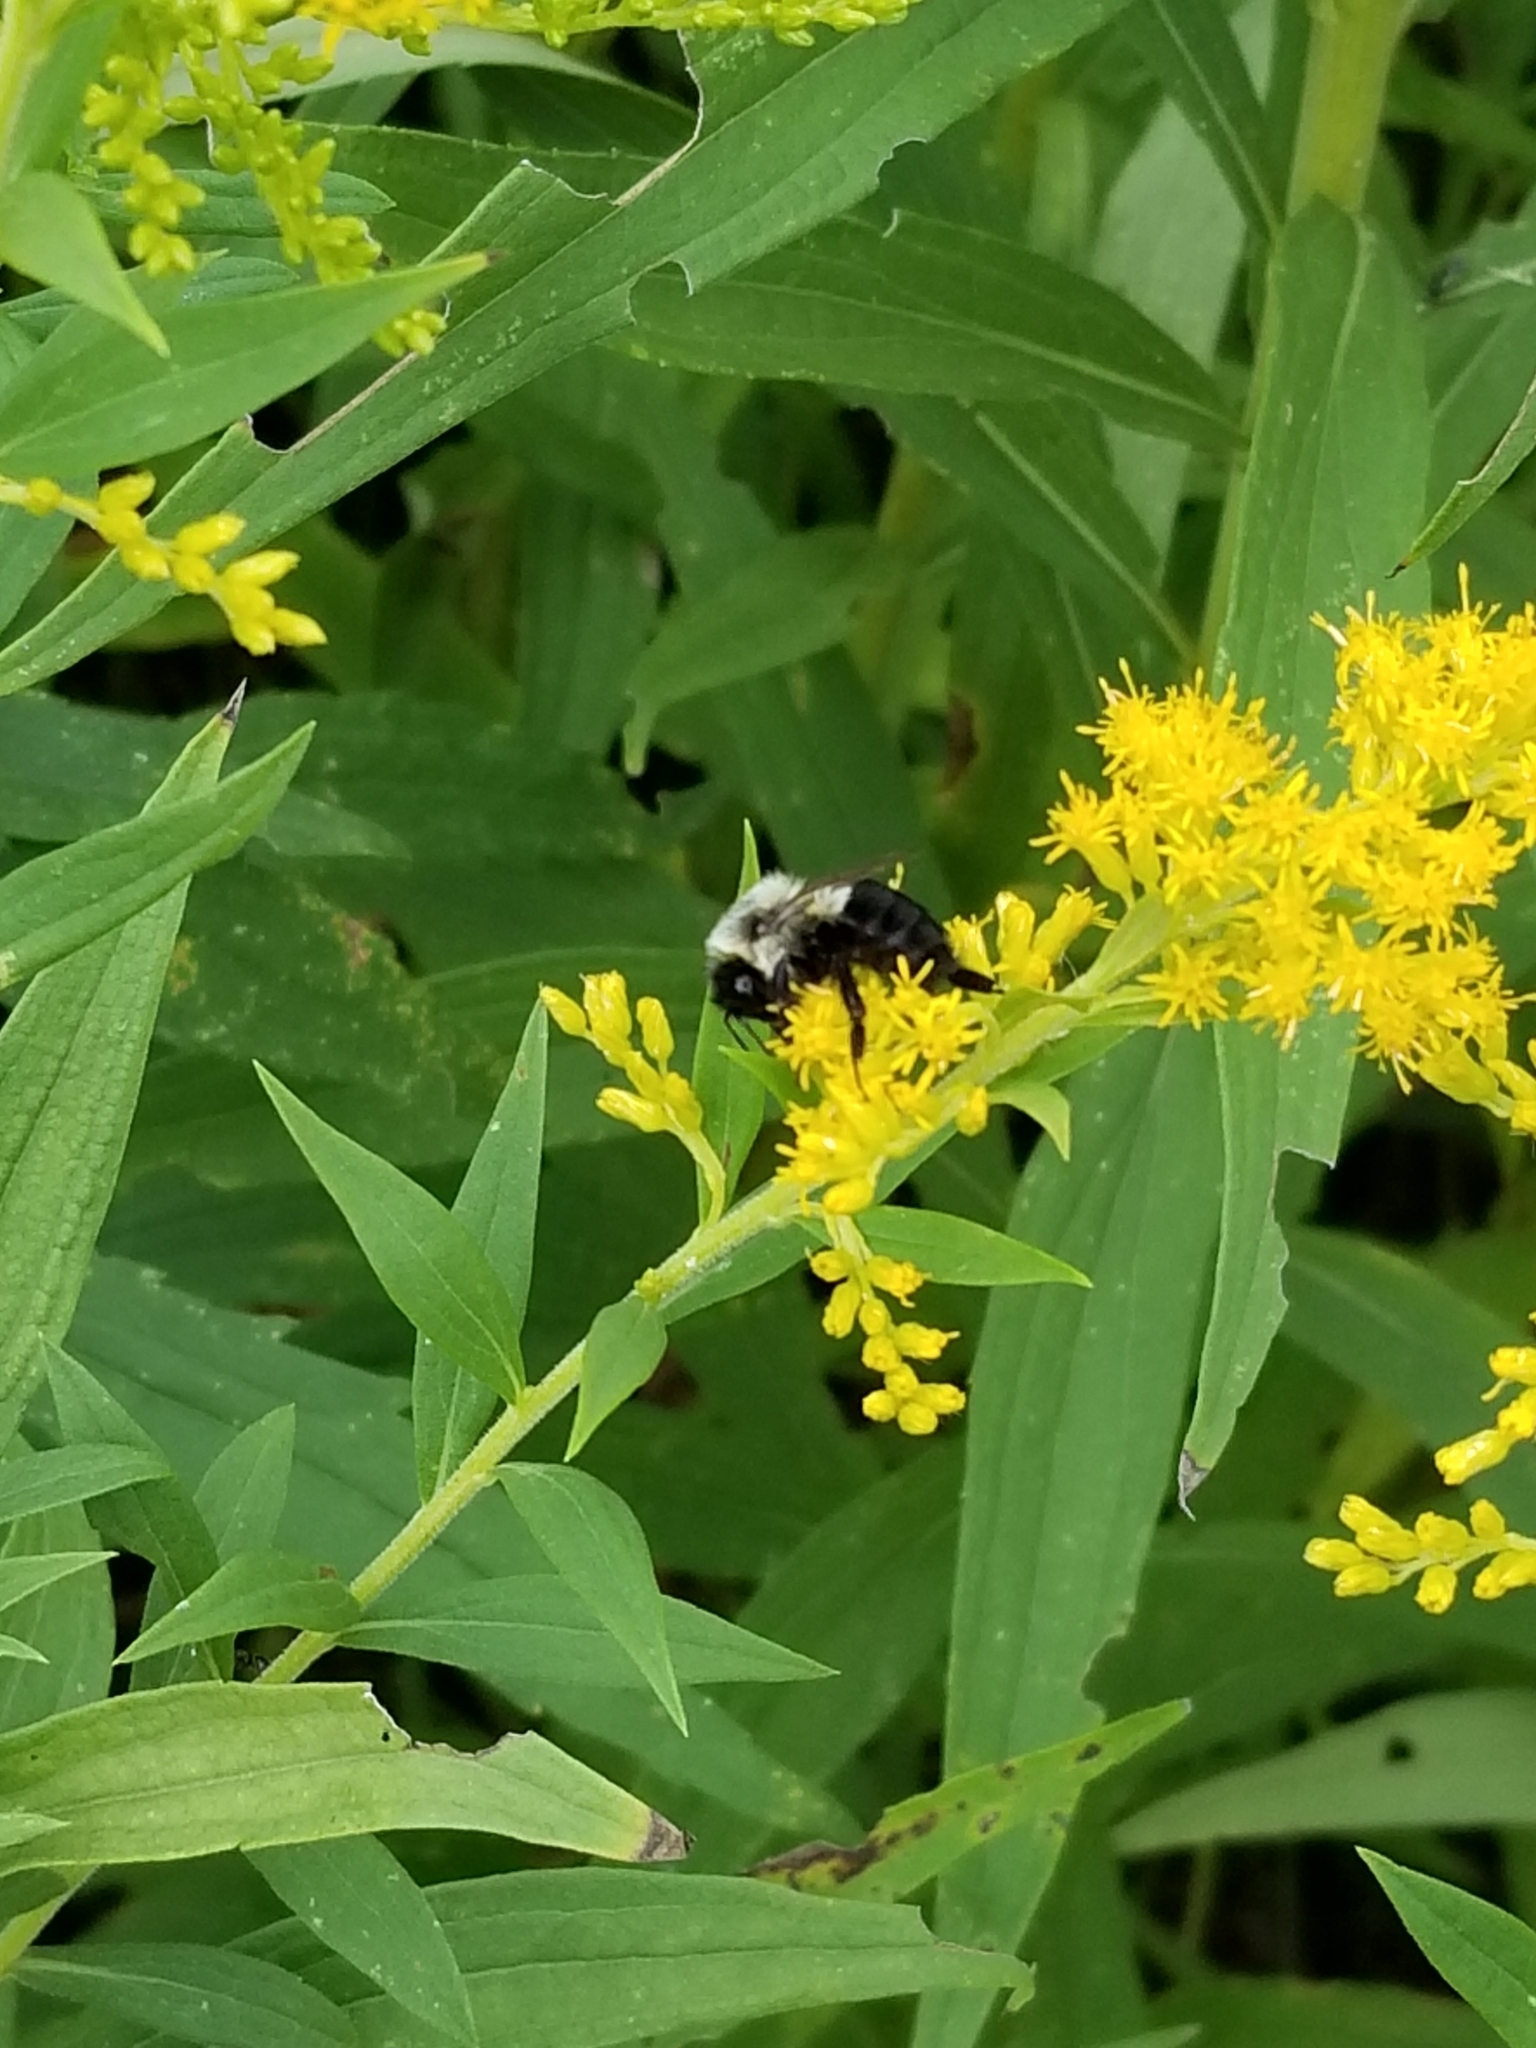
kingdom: Animalia
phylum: Arthropoda
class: Insecta
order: Hymenoptera
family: Apidae
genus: Bombus
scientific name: Bombus impatiens
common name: Common eastern bumble bee
